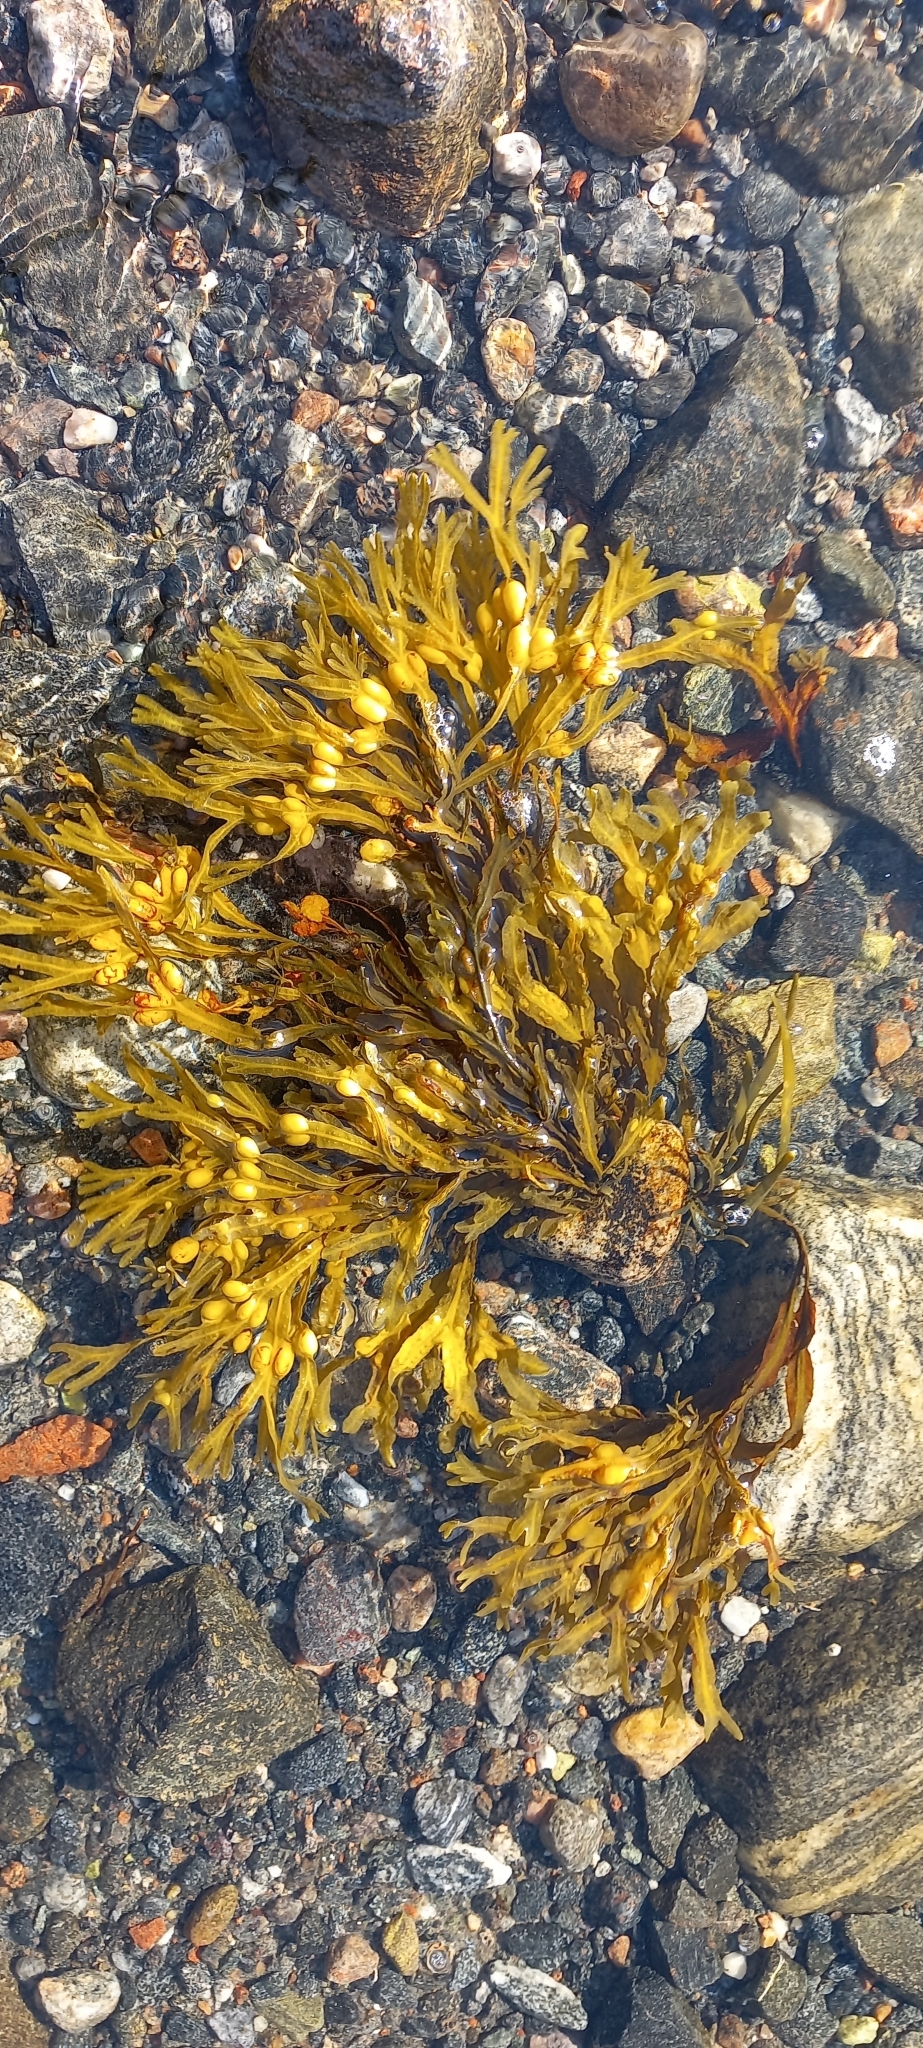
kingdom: Chromista
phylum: Ochrophyta
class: Phaeophyceae
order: Fucales
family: Fucaceae
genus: Fucus
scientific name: Fucus vesiculosus
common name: Bladder wrack
